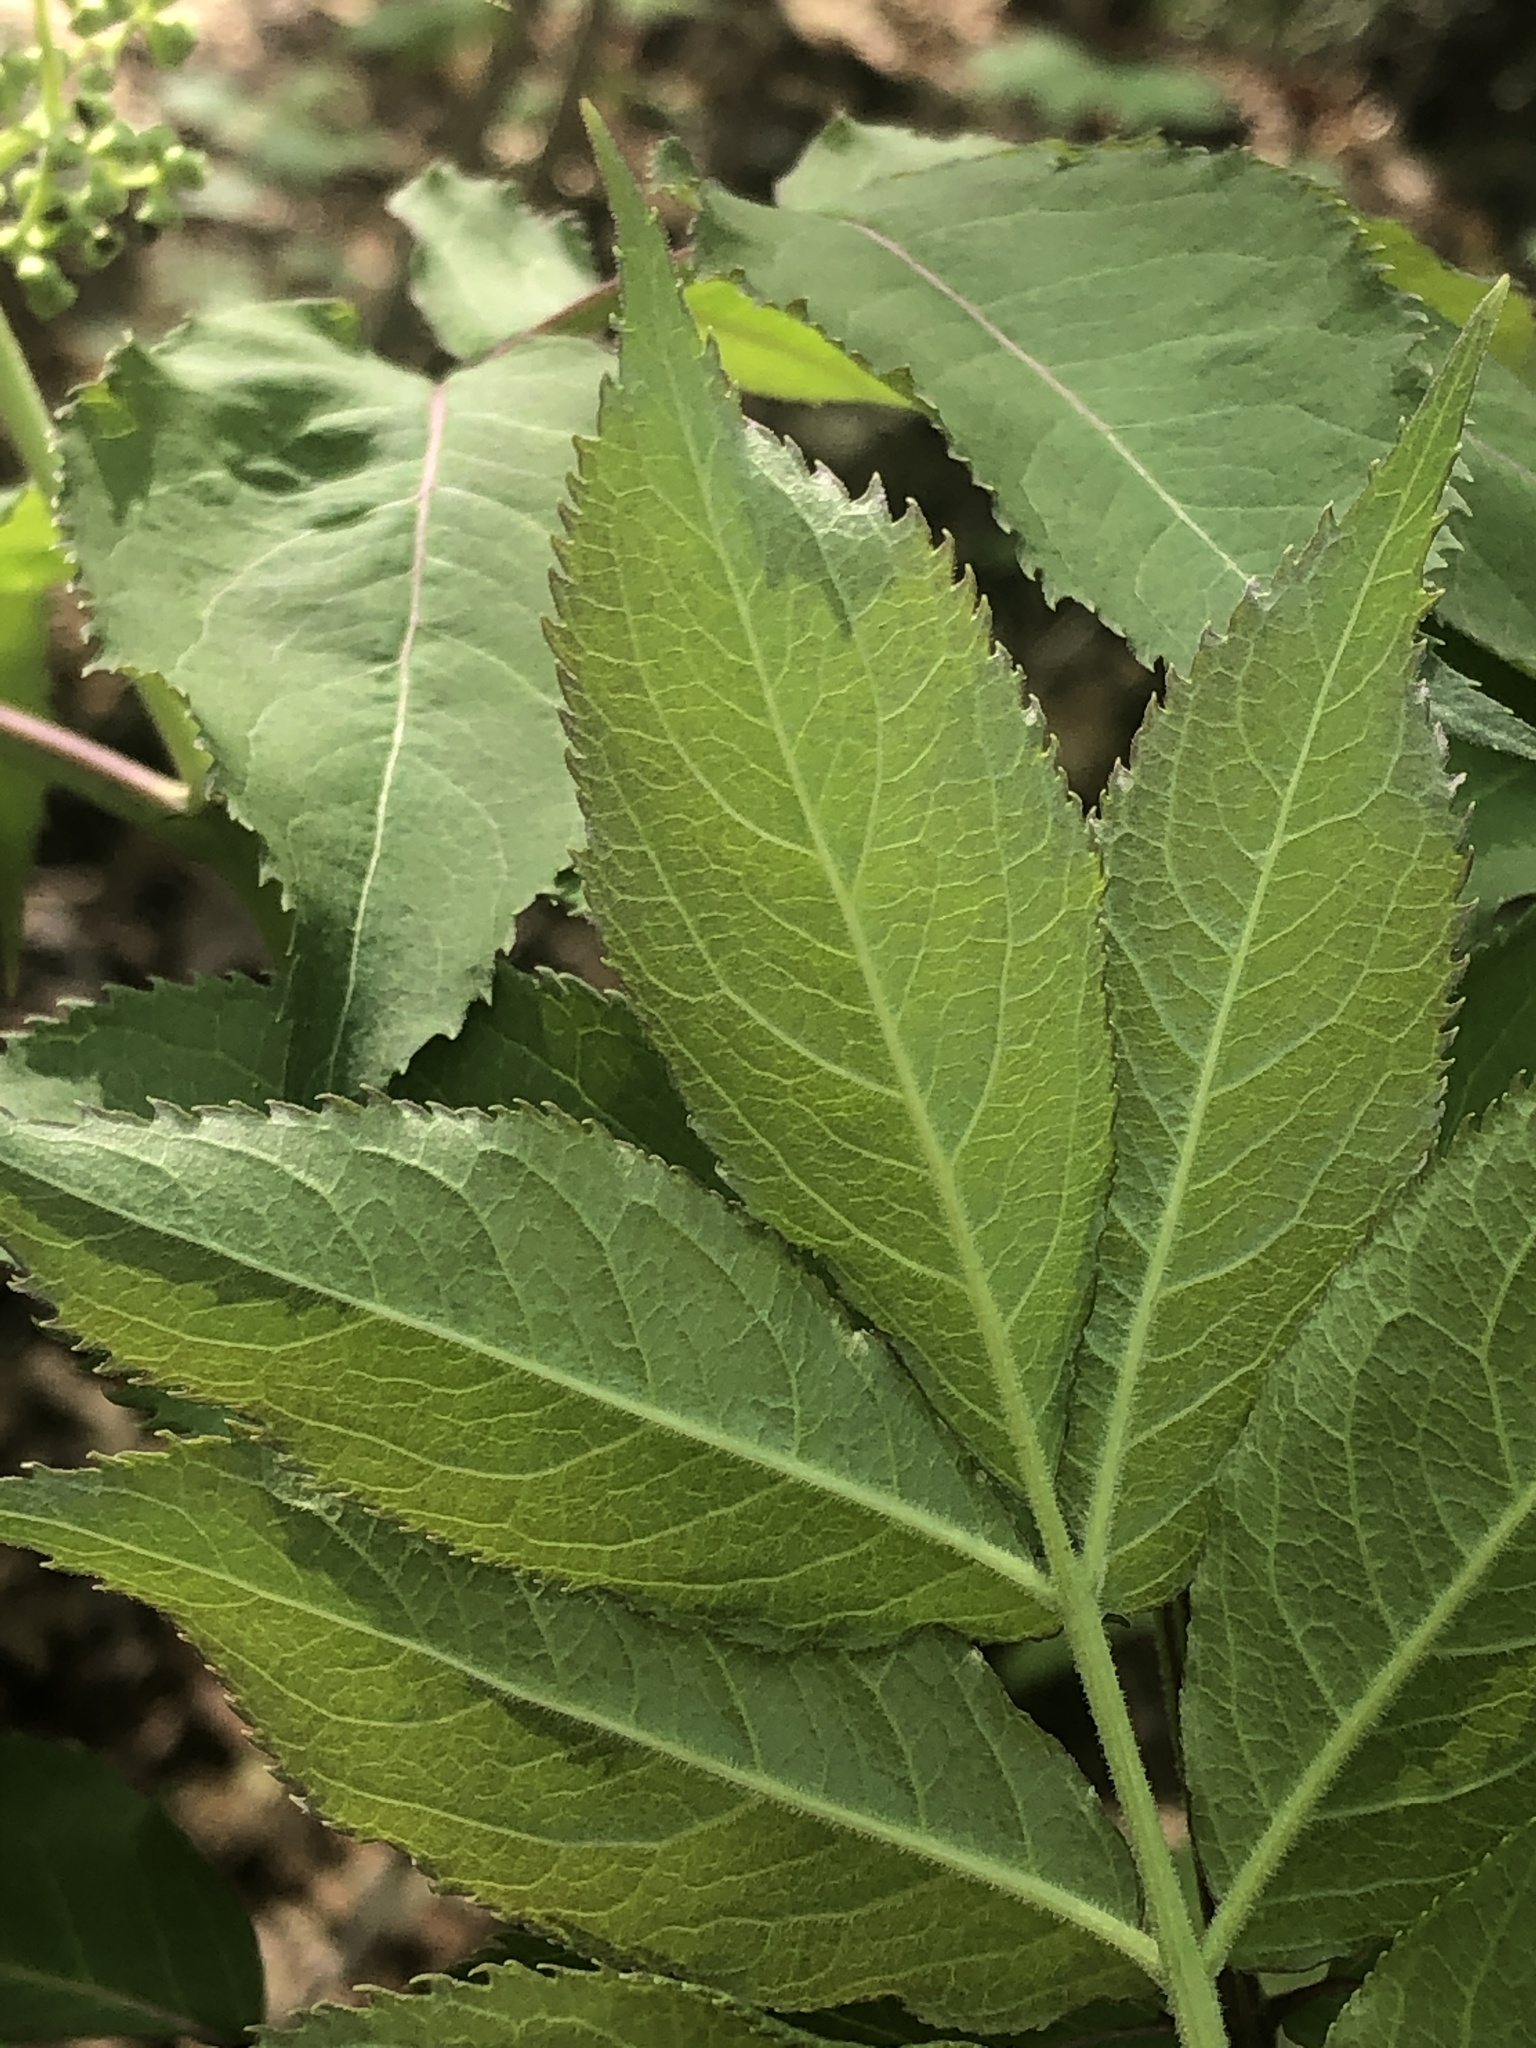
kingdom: Plantae
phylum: Tracheophyta
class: Magnoliopsida
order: Dipsacales
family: Viburnaceae
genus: Sambucus
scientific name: Sambucus racemosa
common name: Red-berried elder
